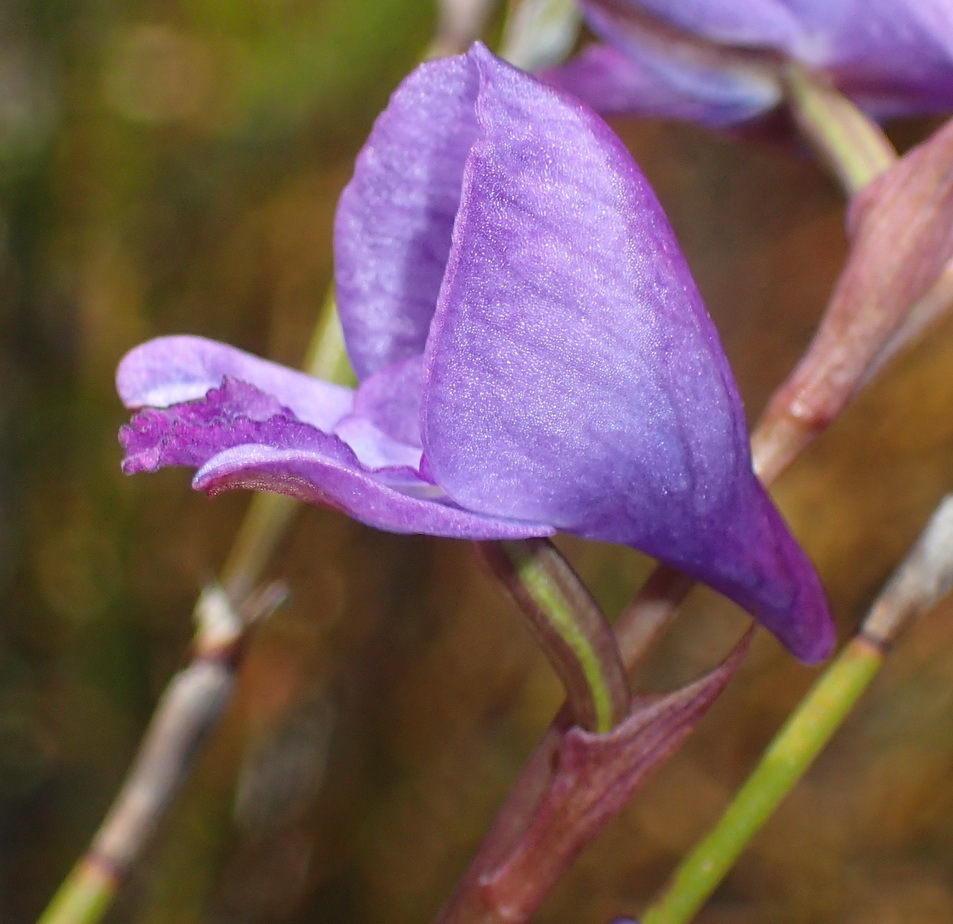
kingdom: Plantae
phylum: Tracheophyta
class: Liliopsida
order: Asparagales
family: Orchidaceae
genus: Disa
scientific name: Disa hians
